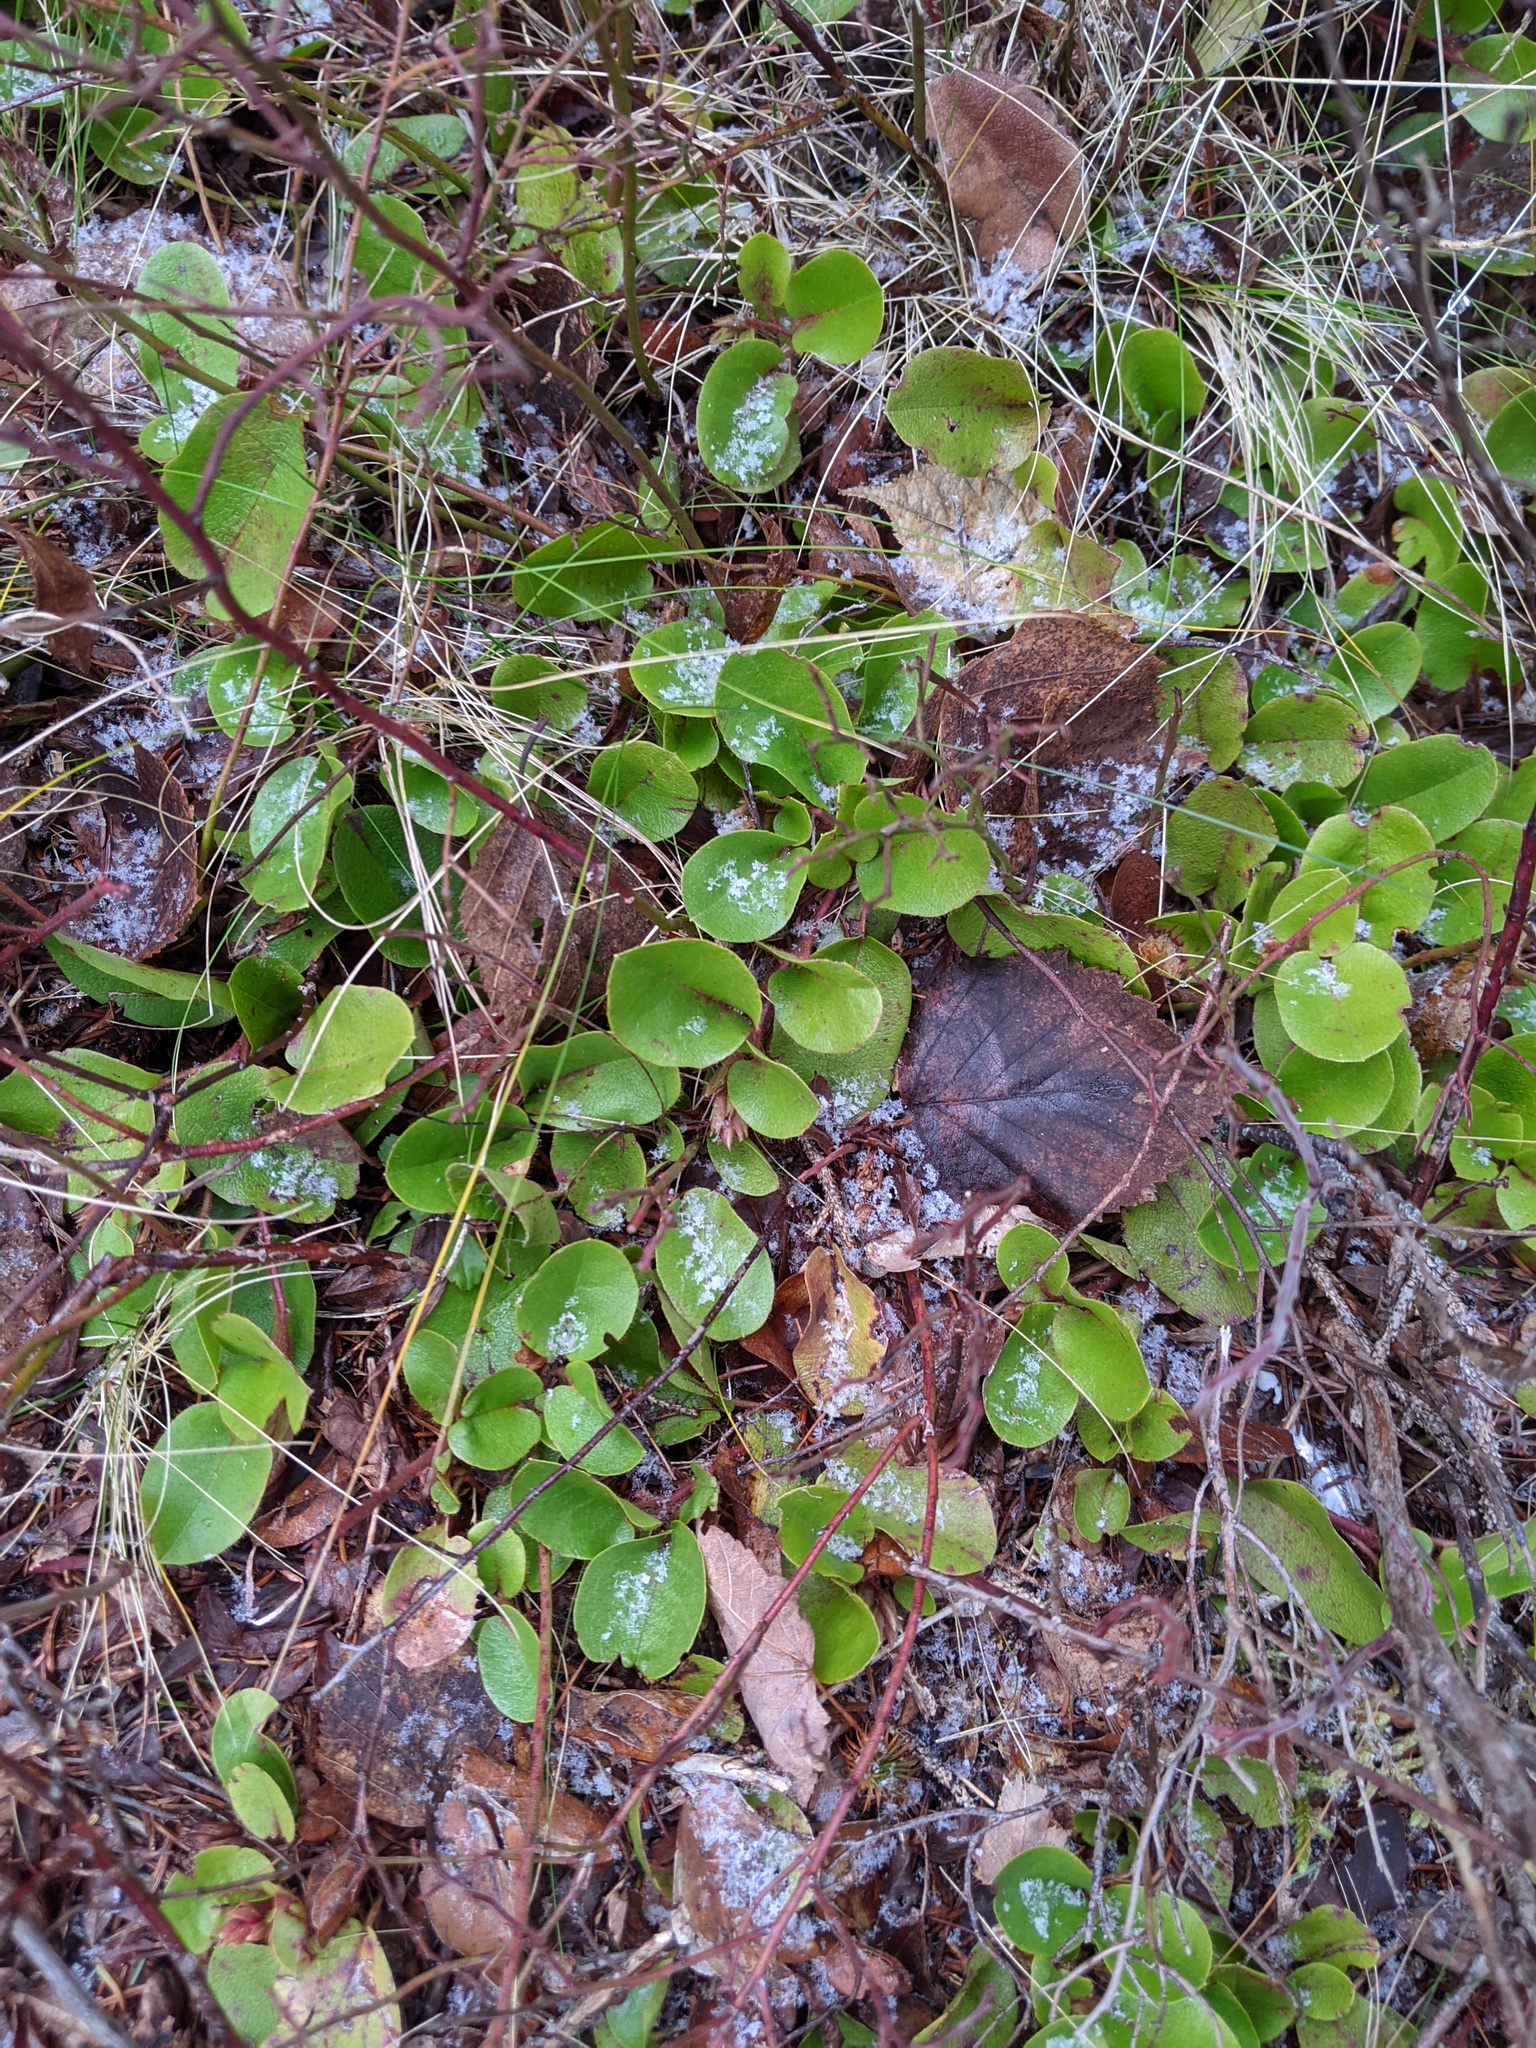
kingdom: Plantae
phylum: Tracheophyta
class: Magnoliopsida
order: Ericales
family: Ericaceae
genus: Epigaea
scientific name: Epigaea repens
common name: Gravelroot
